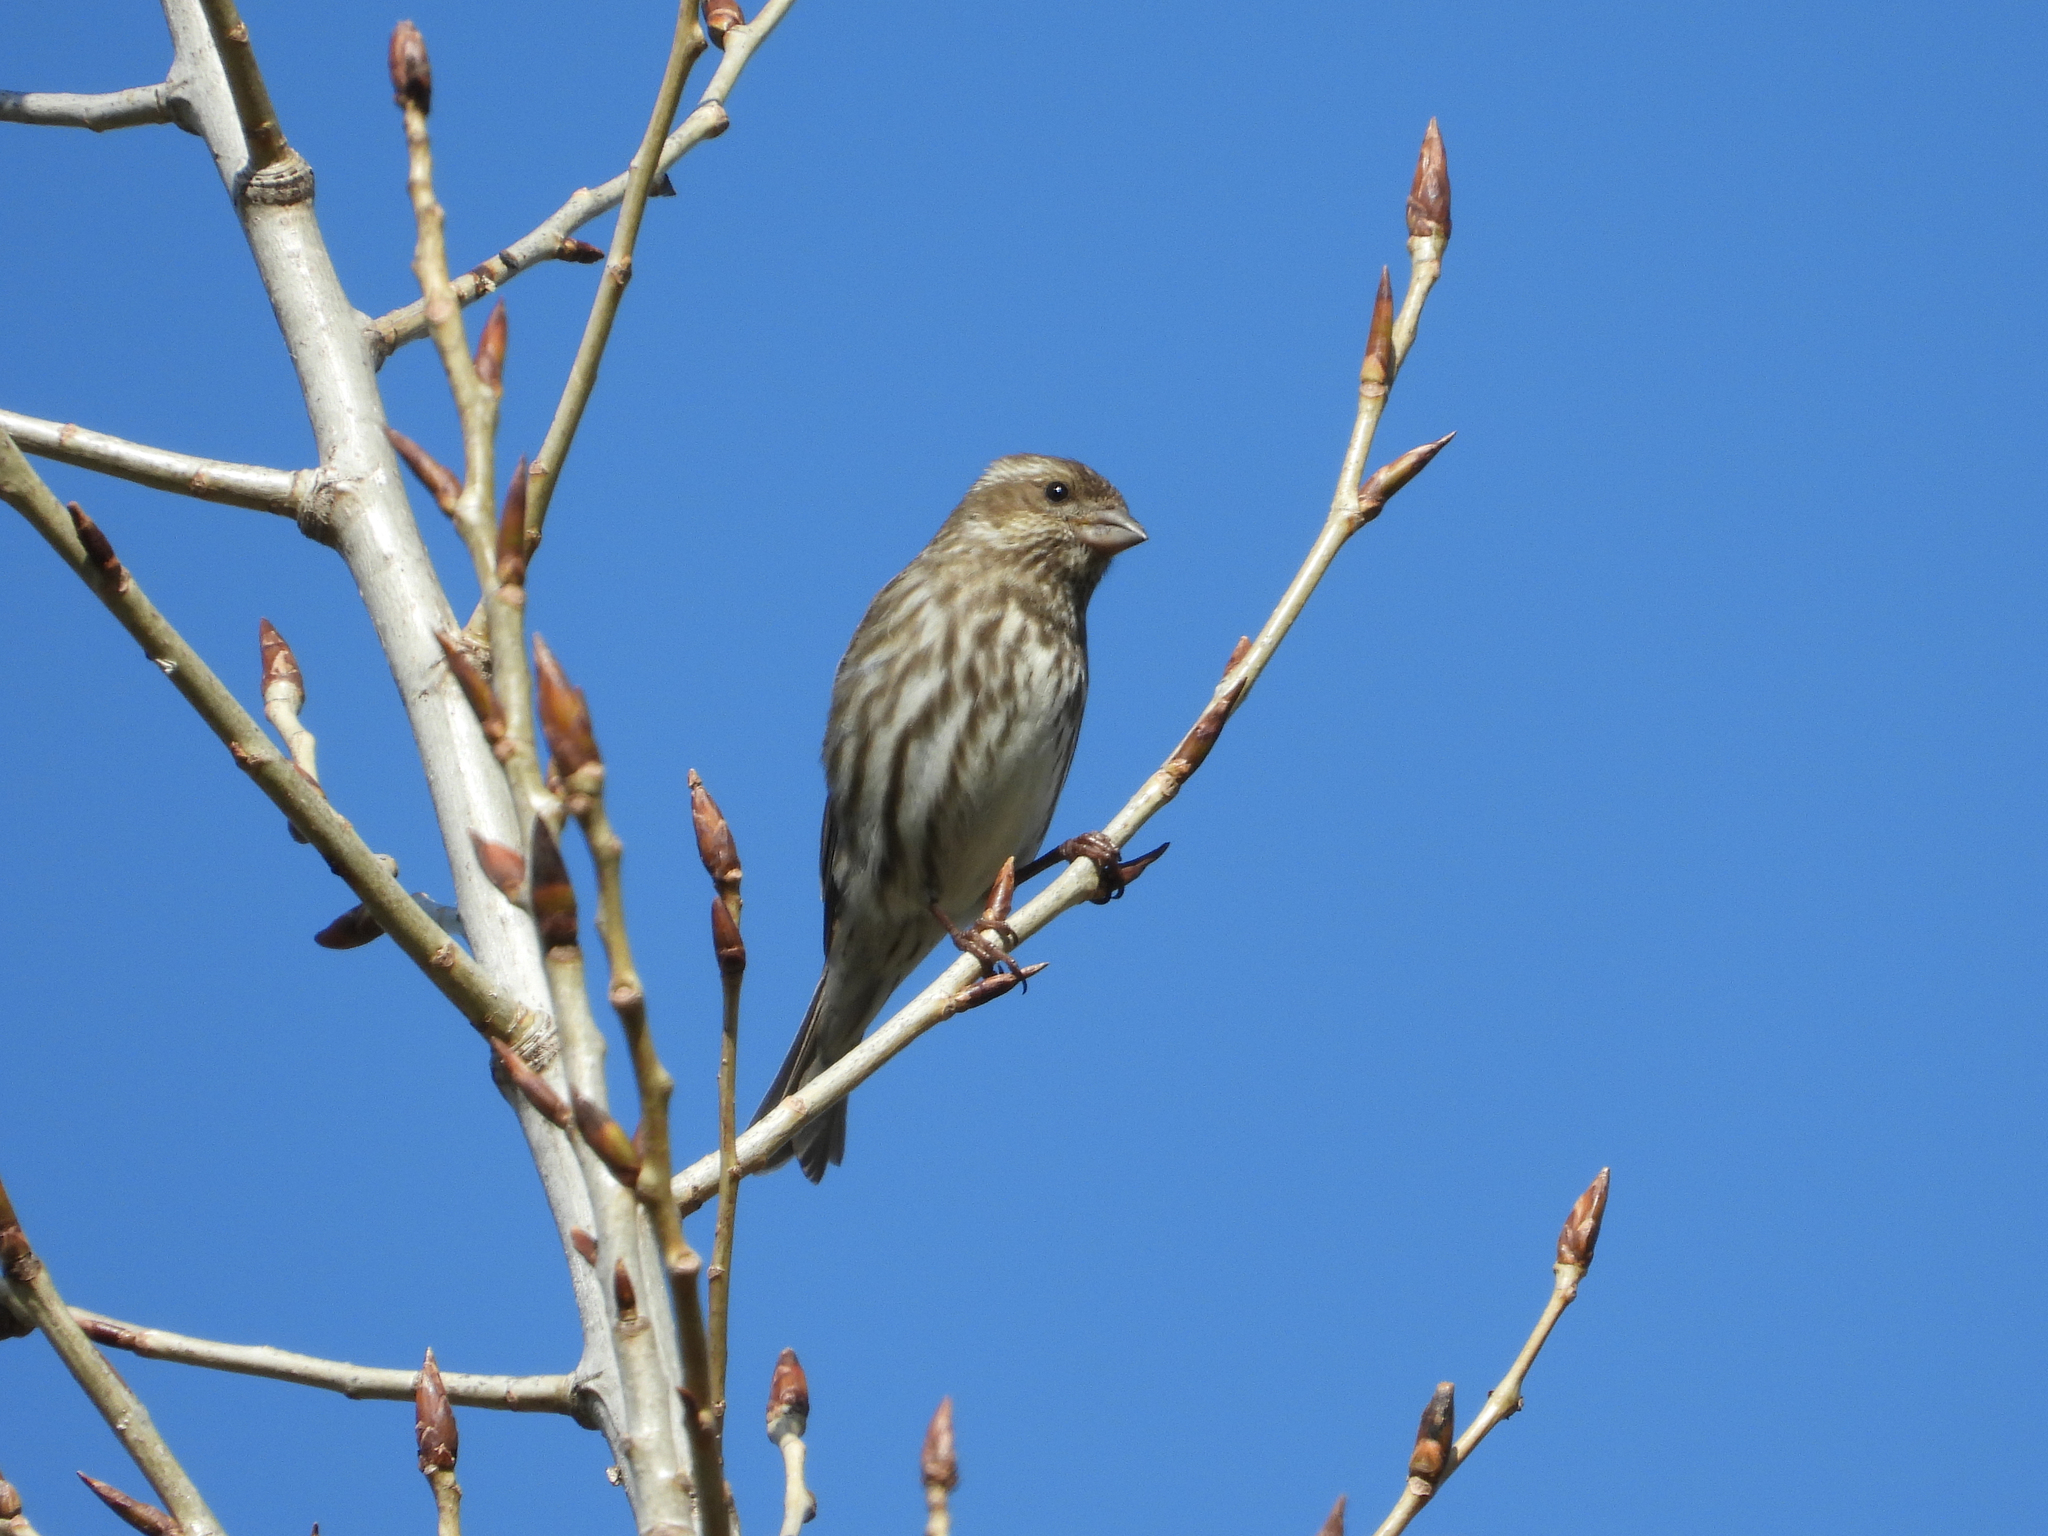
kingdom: Animalia
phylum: Chordata
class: Aves
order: Passeriformes
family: Fringillidae
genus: Haemorhous
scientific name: Haemorhous purpureus
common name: Purple finch
